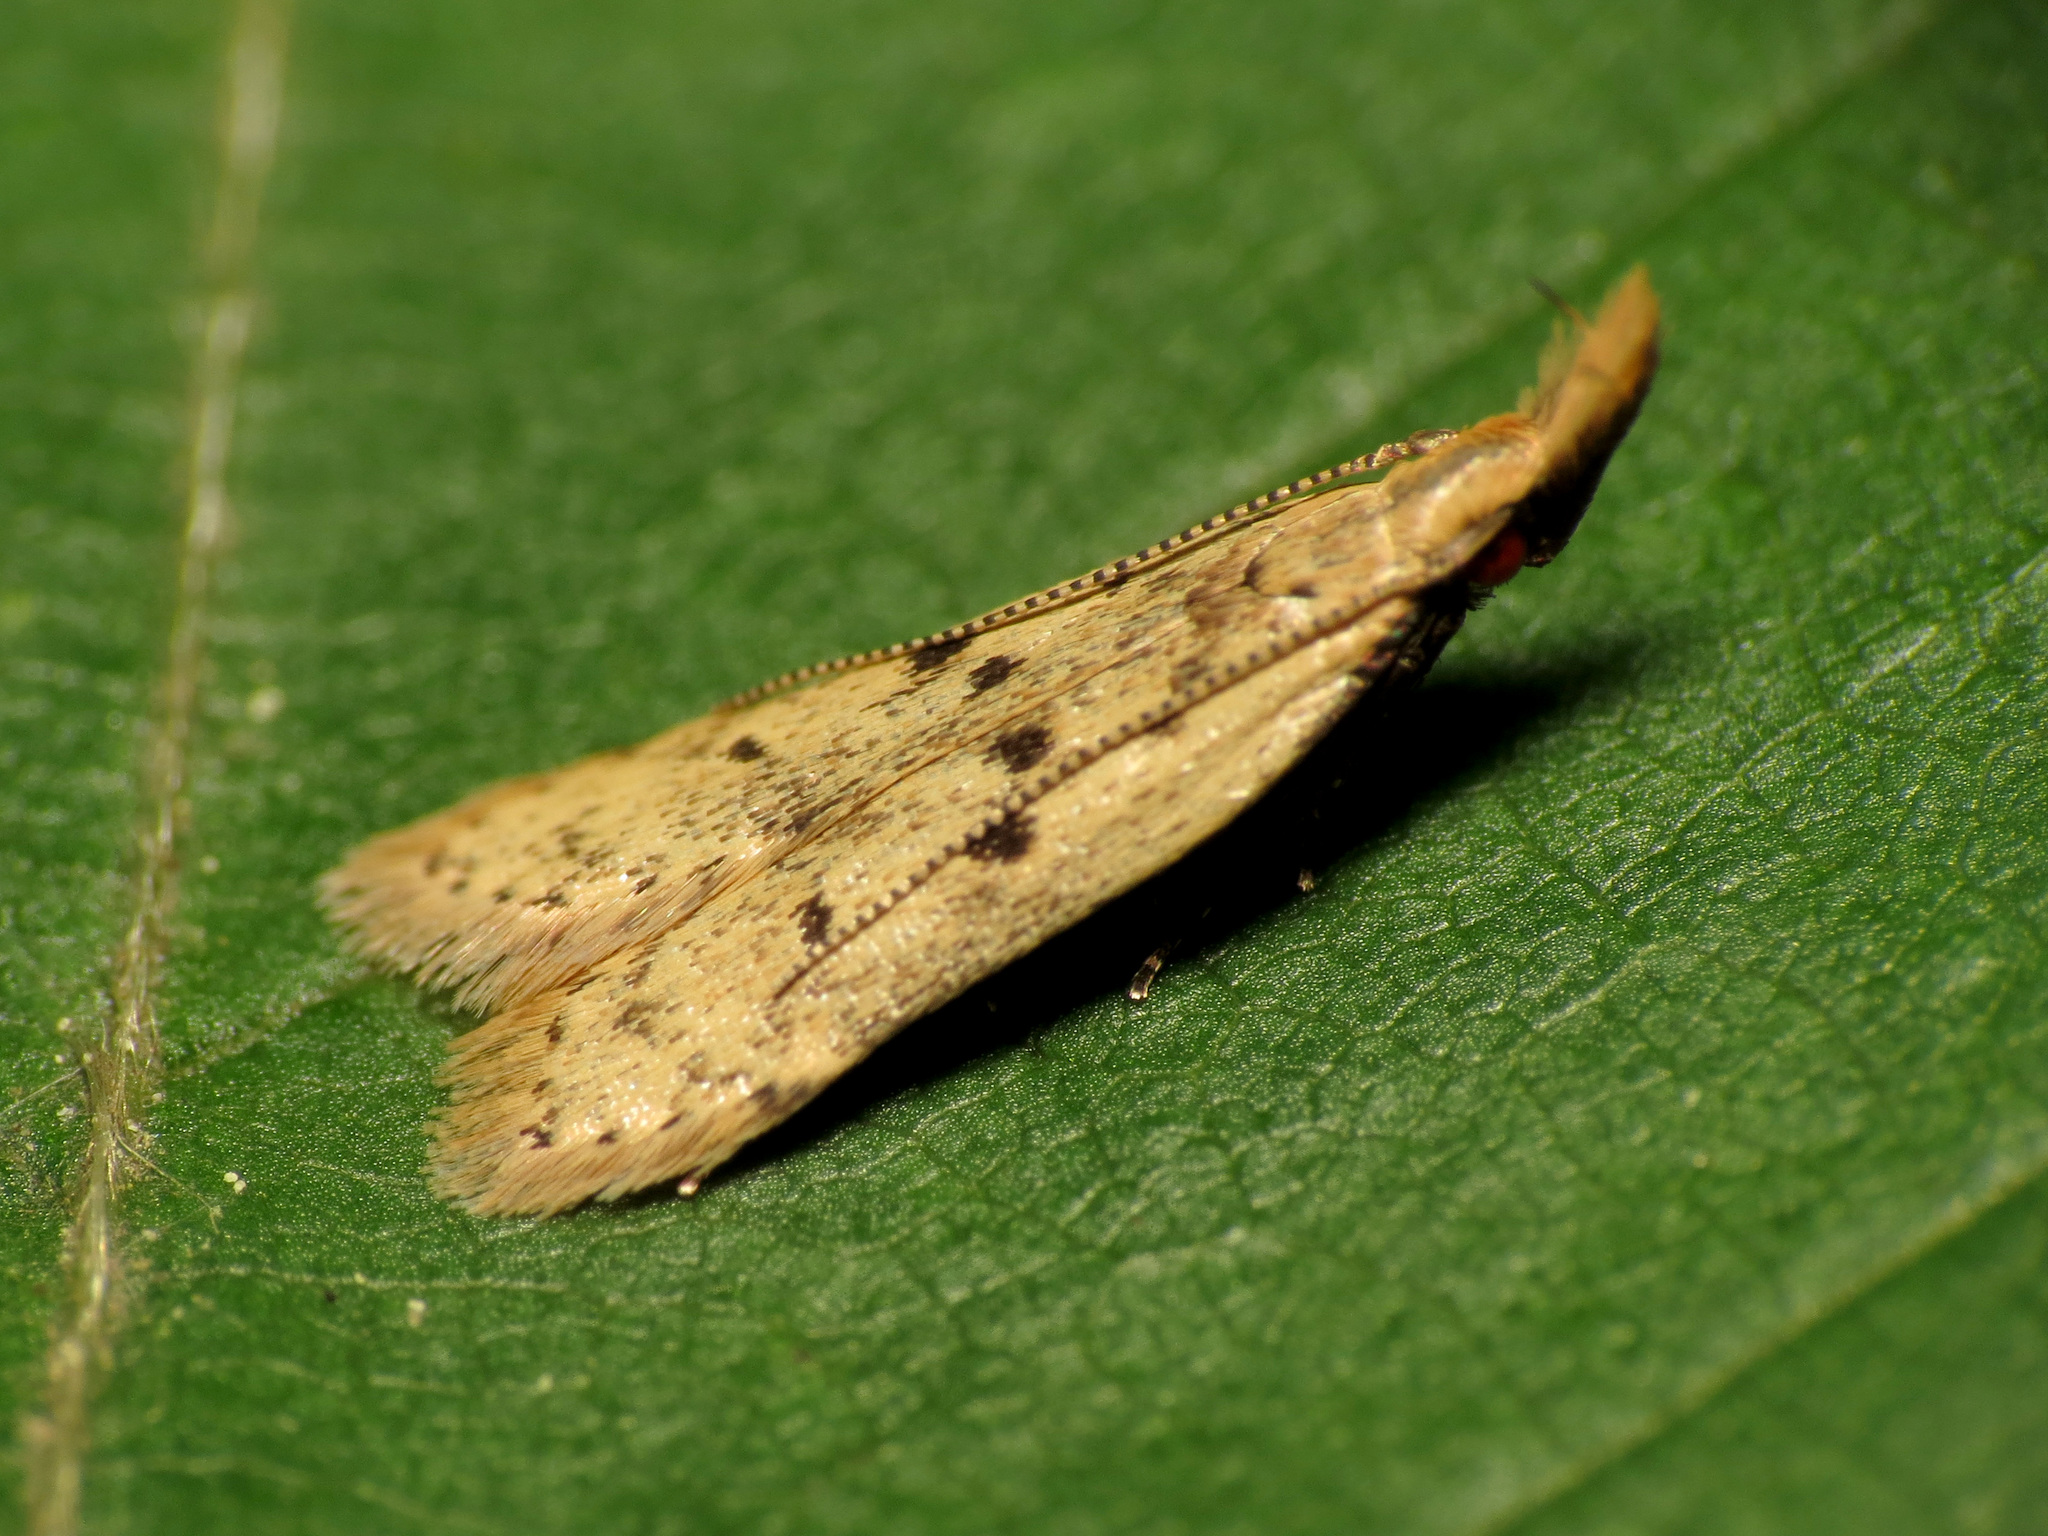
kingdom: Animalia
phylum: Arthropoda
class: Insecta
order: Lepidoptera
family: Gelechiidae
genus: Dichomeris
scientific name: Dichomeris punctipennella
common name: Many-spotted dichomeris moth
